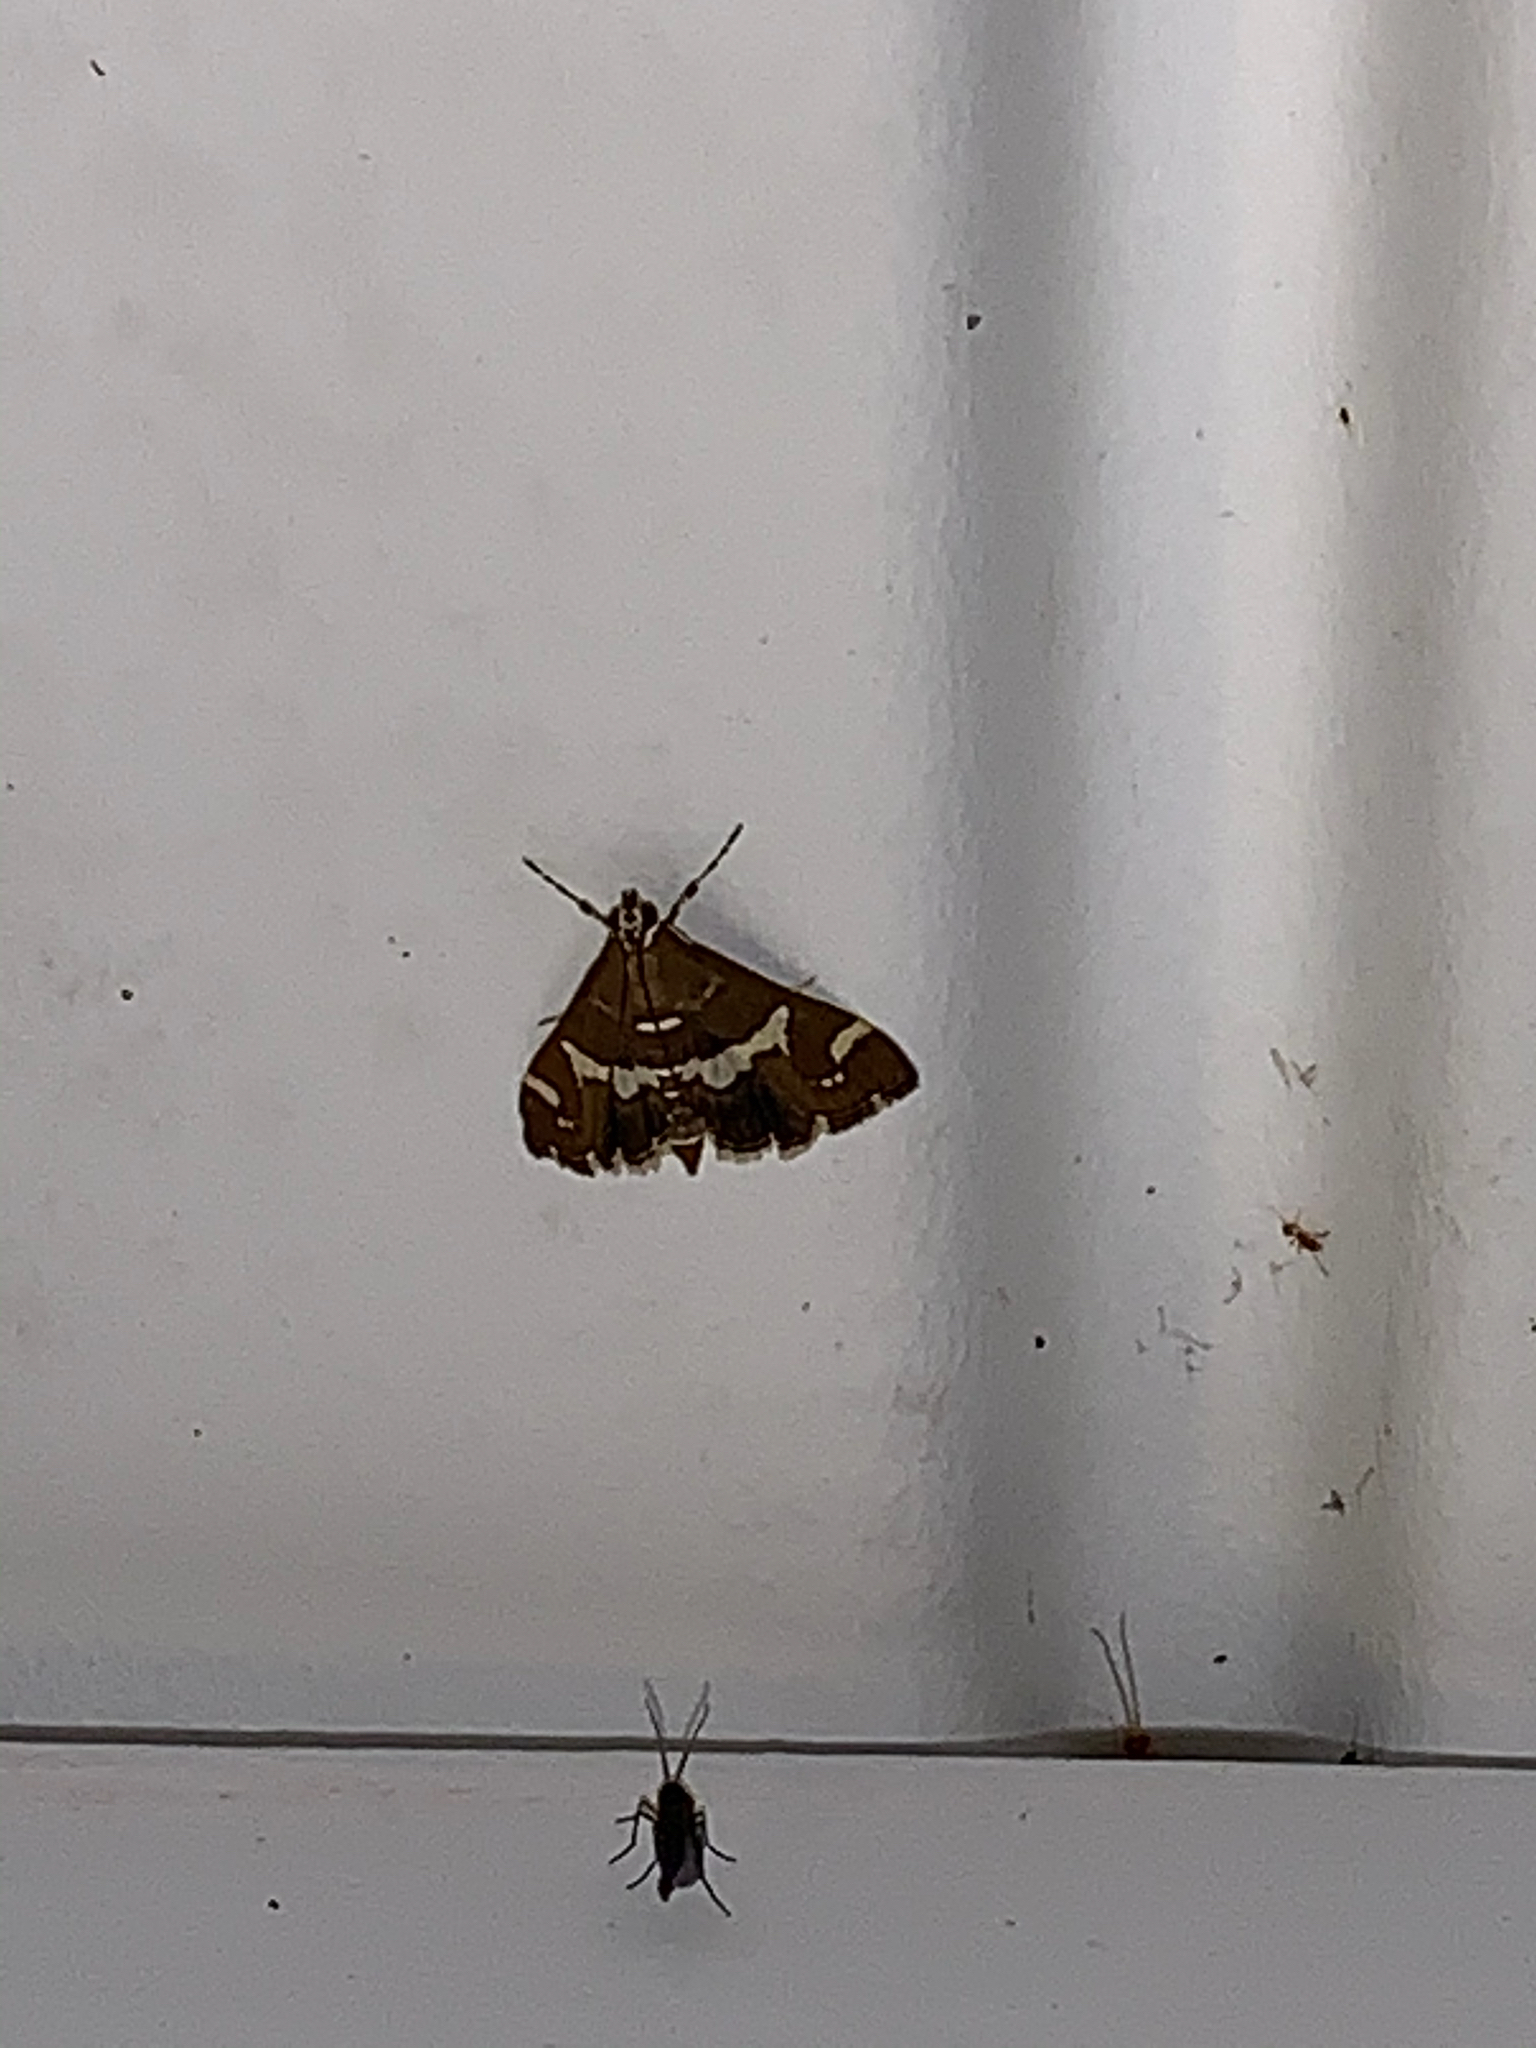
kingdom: Animalia
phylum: Arthropoda
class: Insecta
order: Lepidoptera
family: Crambidae
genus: Spoladea
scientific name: Spoladea recurvalis
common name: Beet webworm moth
